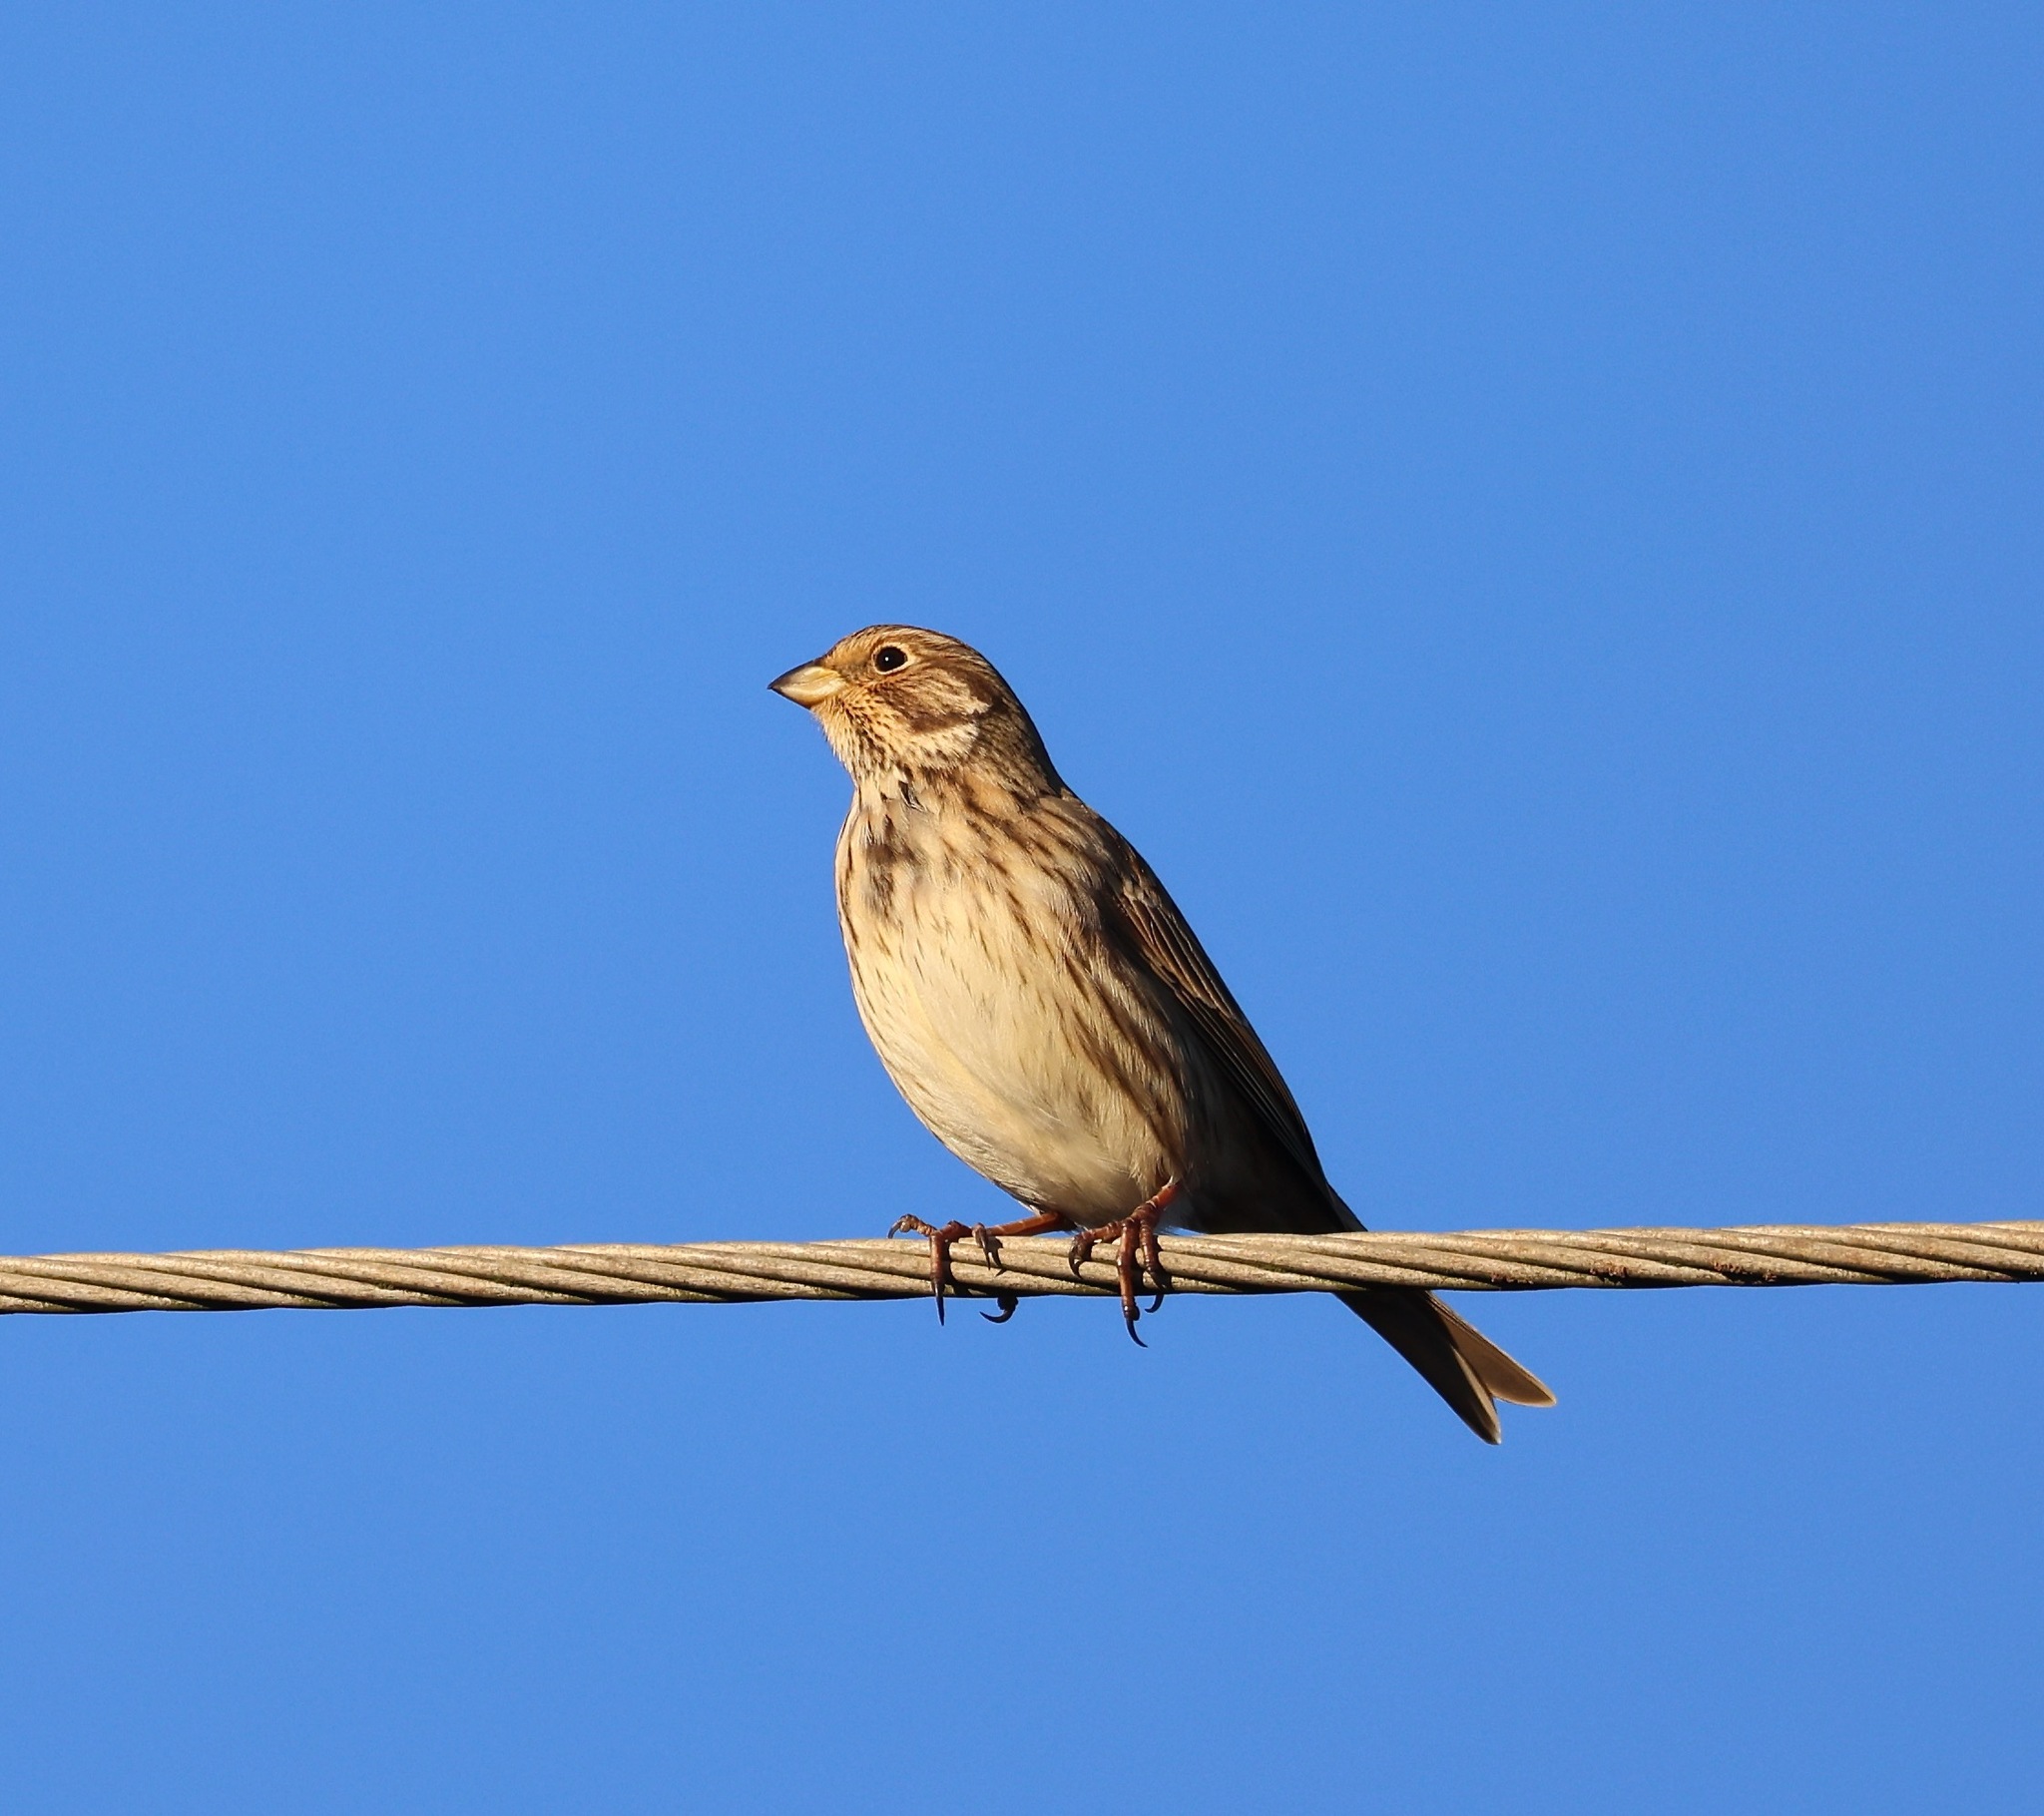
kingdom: Animalia
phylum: Chordata
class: Aves
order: Passeriformes
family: Emberizidae
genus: Emberiza
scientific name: Emberiza calandra
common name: Corn bunting
